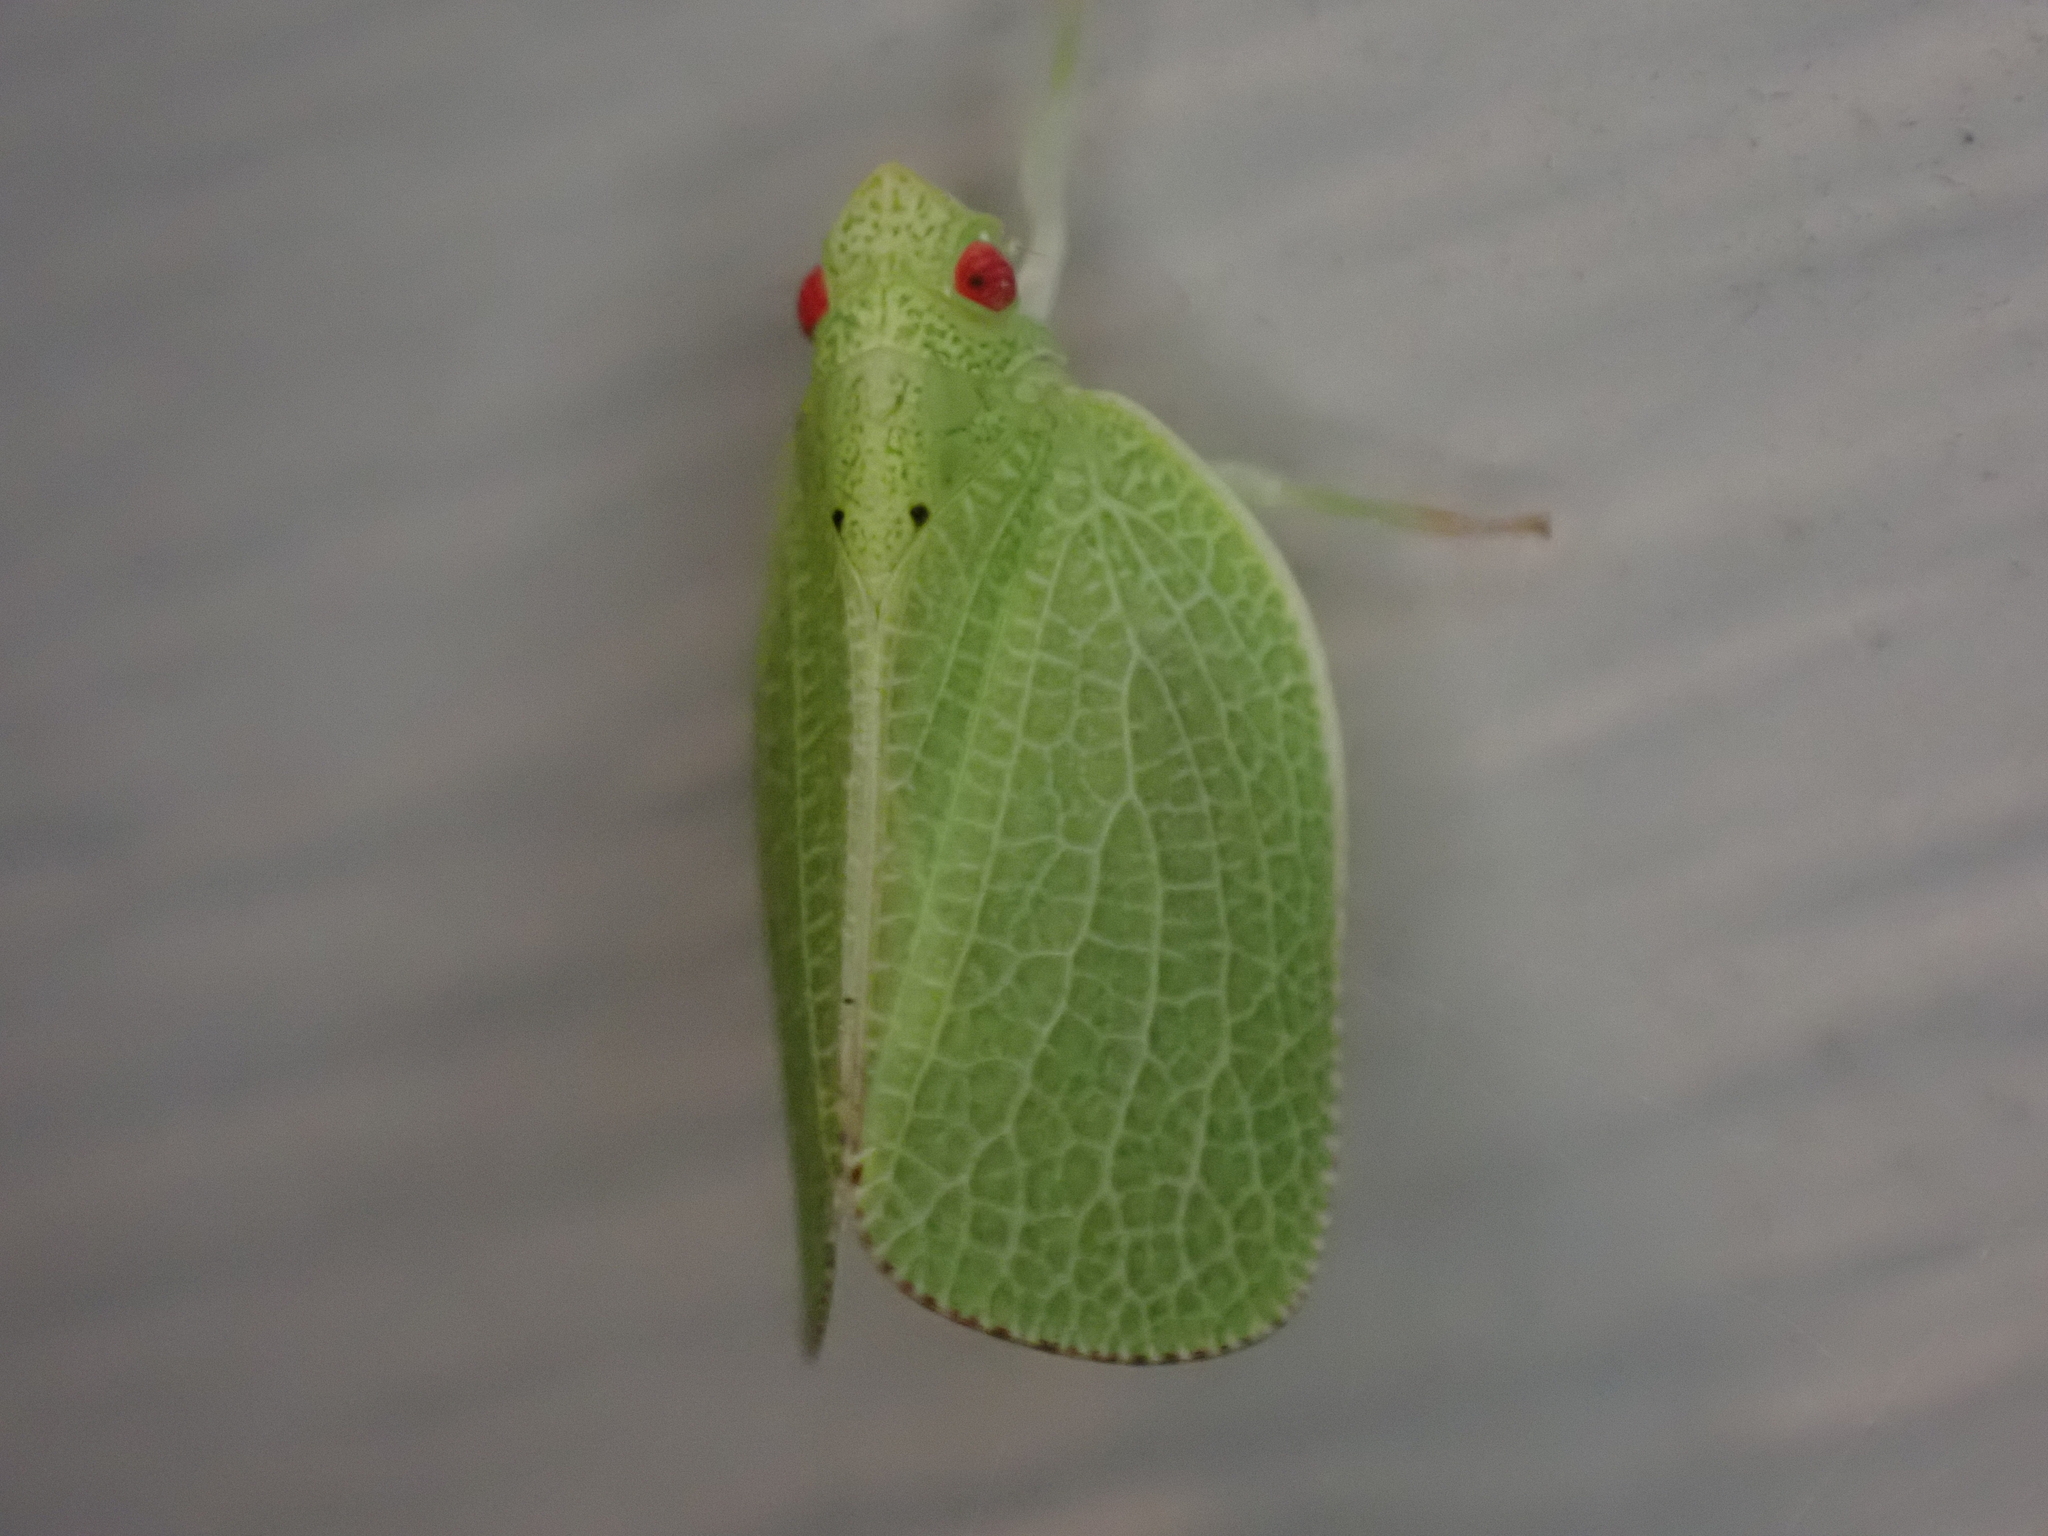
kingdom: Animalia
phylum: Arthropoda
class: Insecta
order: Hemiptera
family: Acanaloniidae
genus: Acanalonia
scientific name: Acanalonia conica
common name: Green cone-headed planthopper
